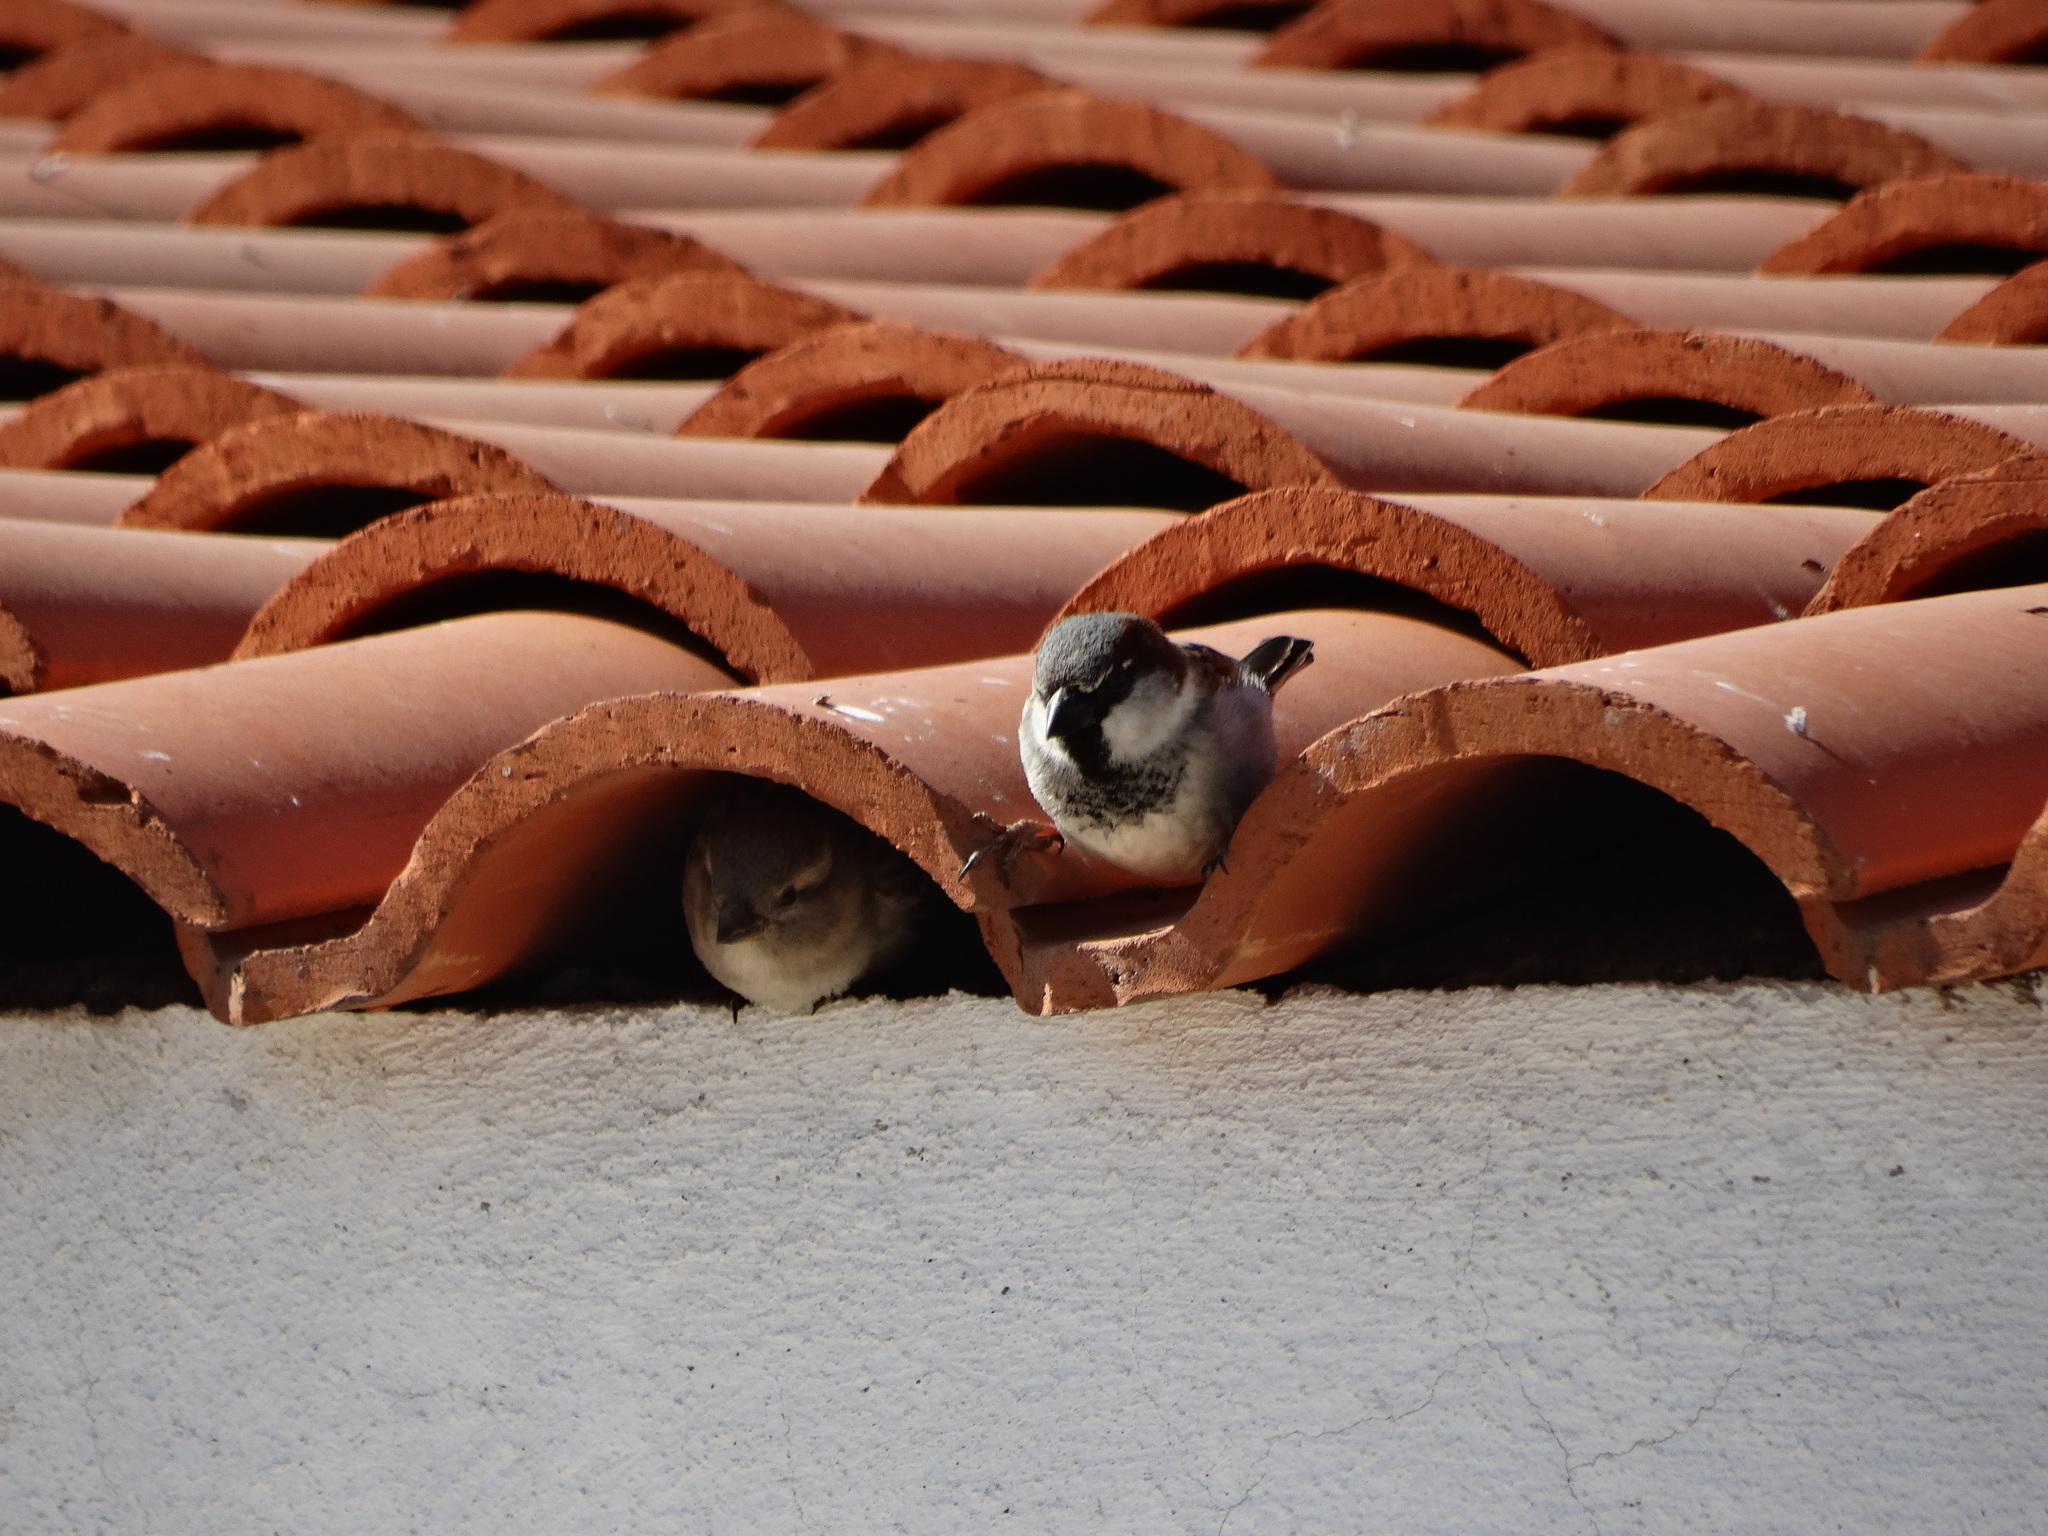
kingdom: Animalia
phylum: Chordata
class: Aves
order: Passeriformes
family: Passeridae
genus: Passer
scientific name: Passer domesticus
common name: House sparrow
